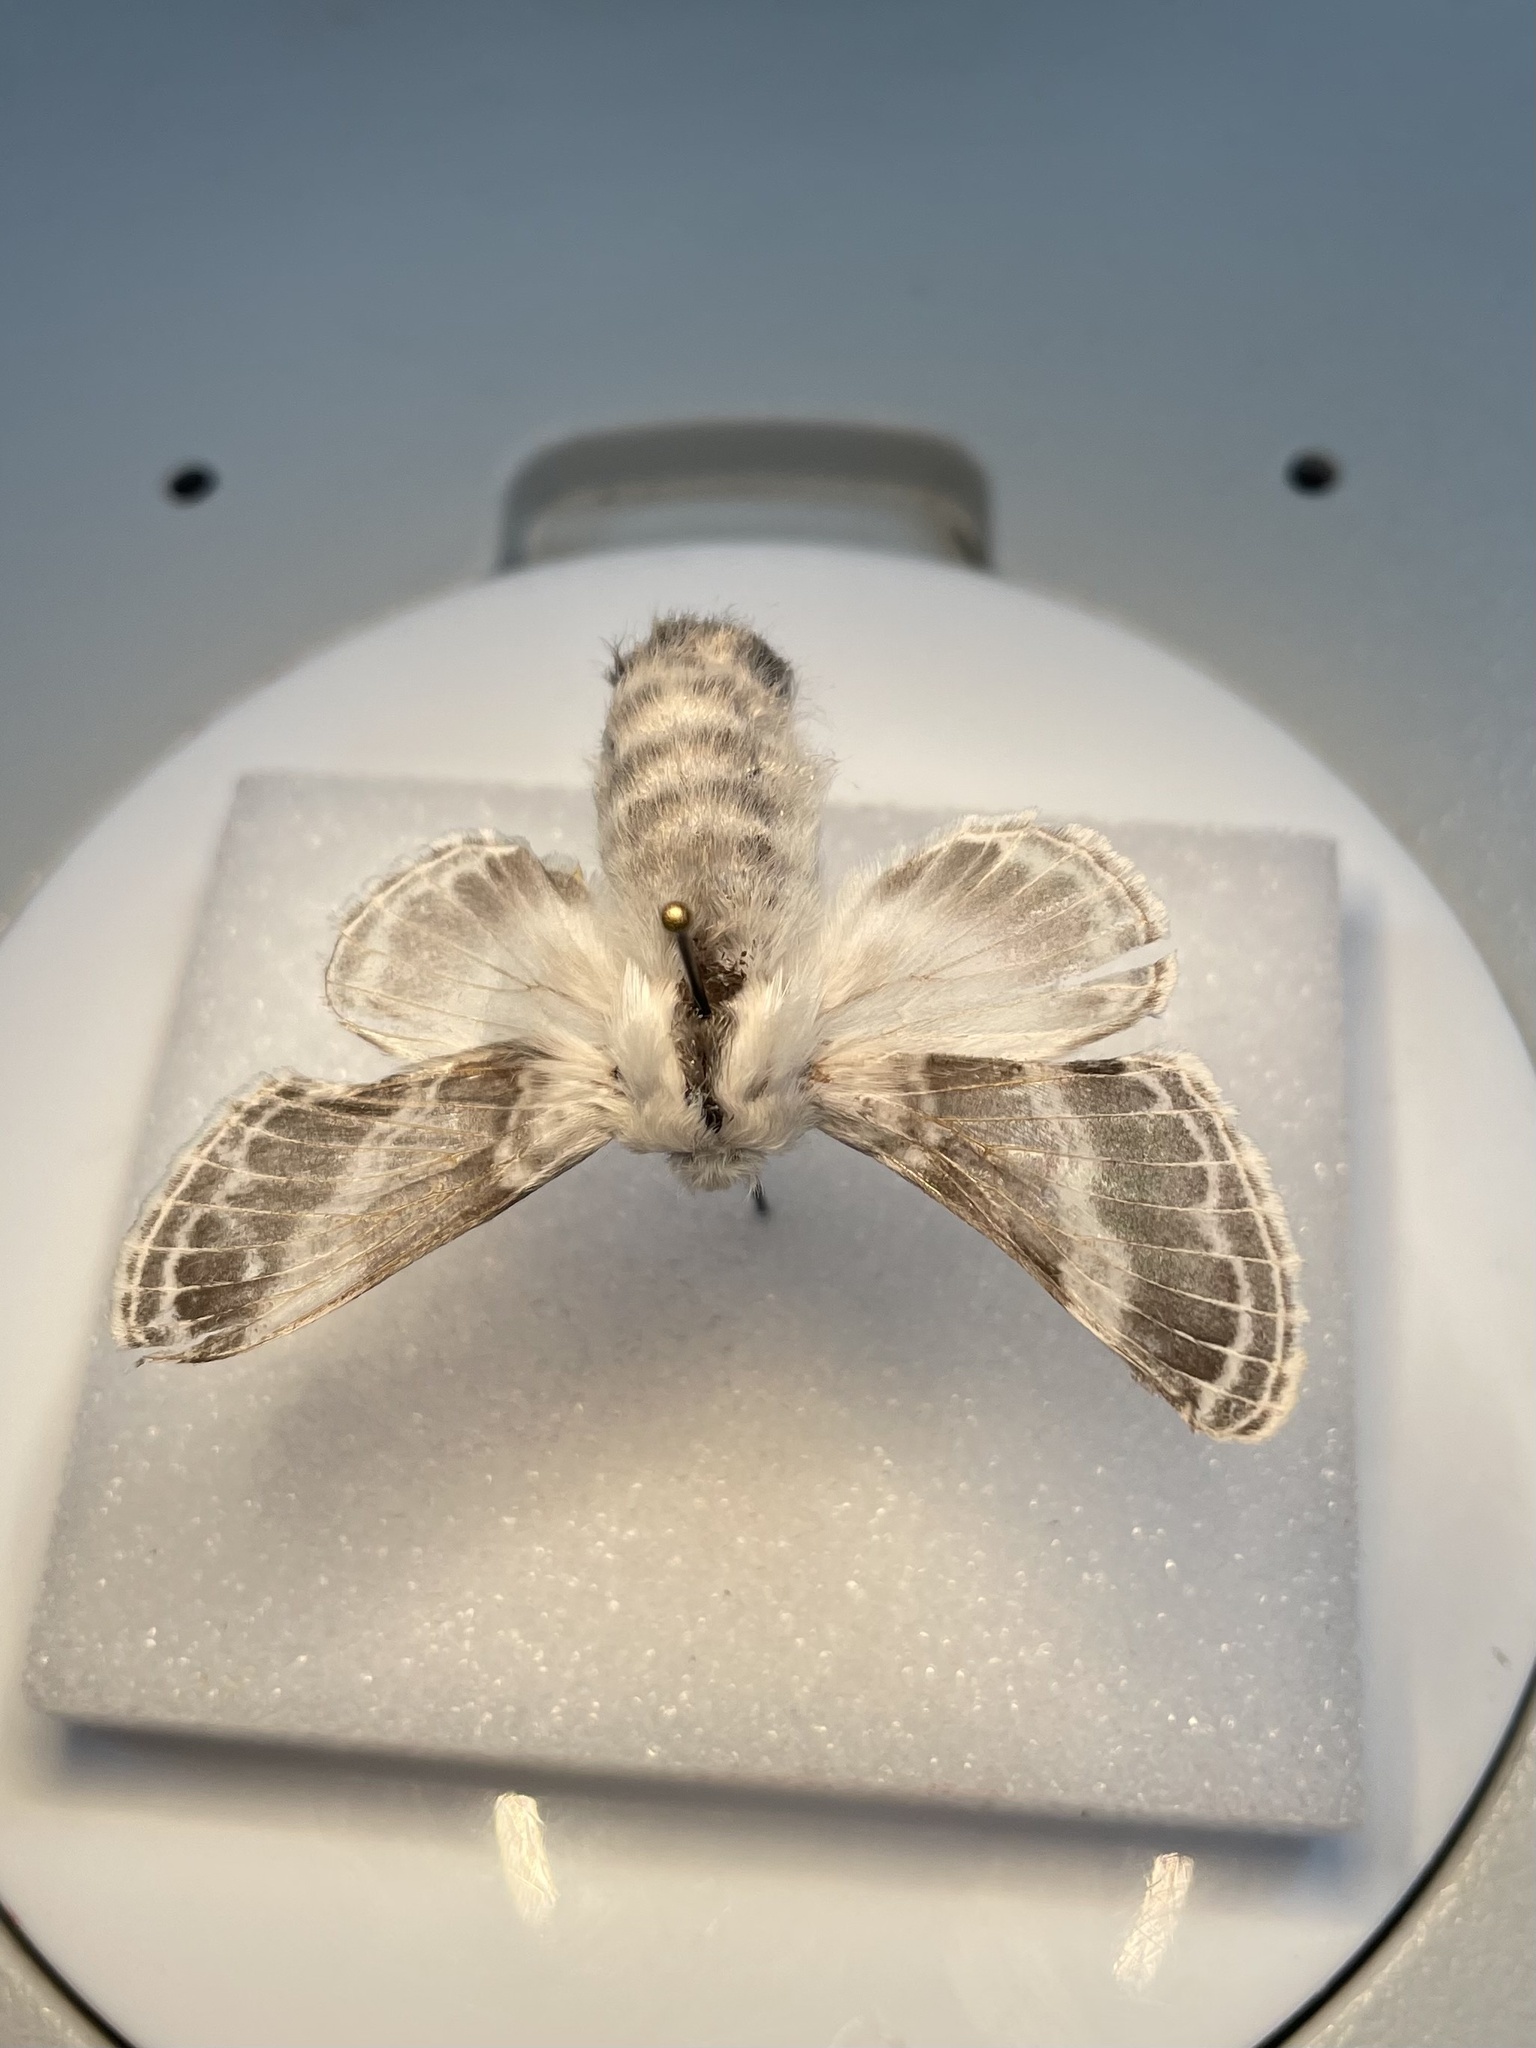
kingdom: Animalia
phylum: Arthropoda
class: Insecta
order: Lepidoptera
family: Lasiocampidae
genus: Tolype
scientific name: Tolype velleda
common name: Large tolype moth
